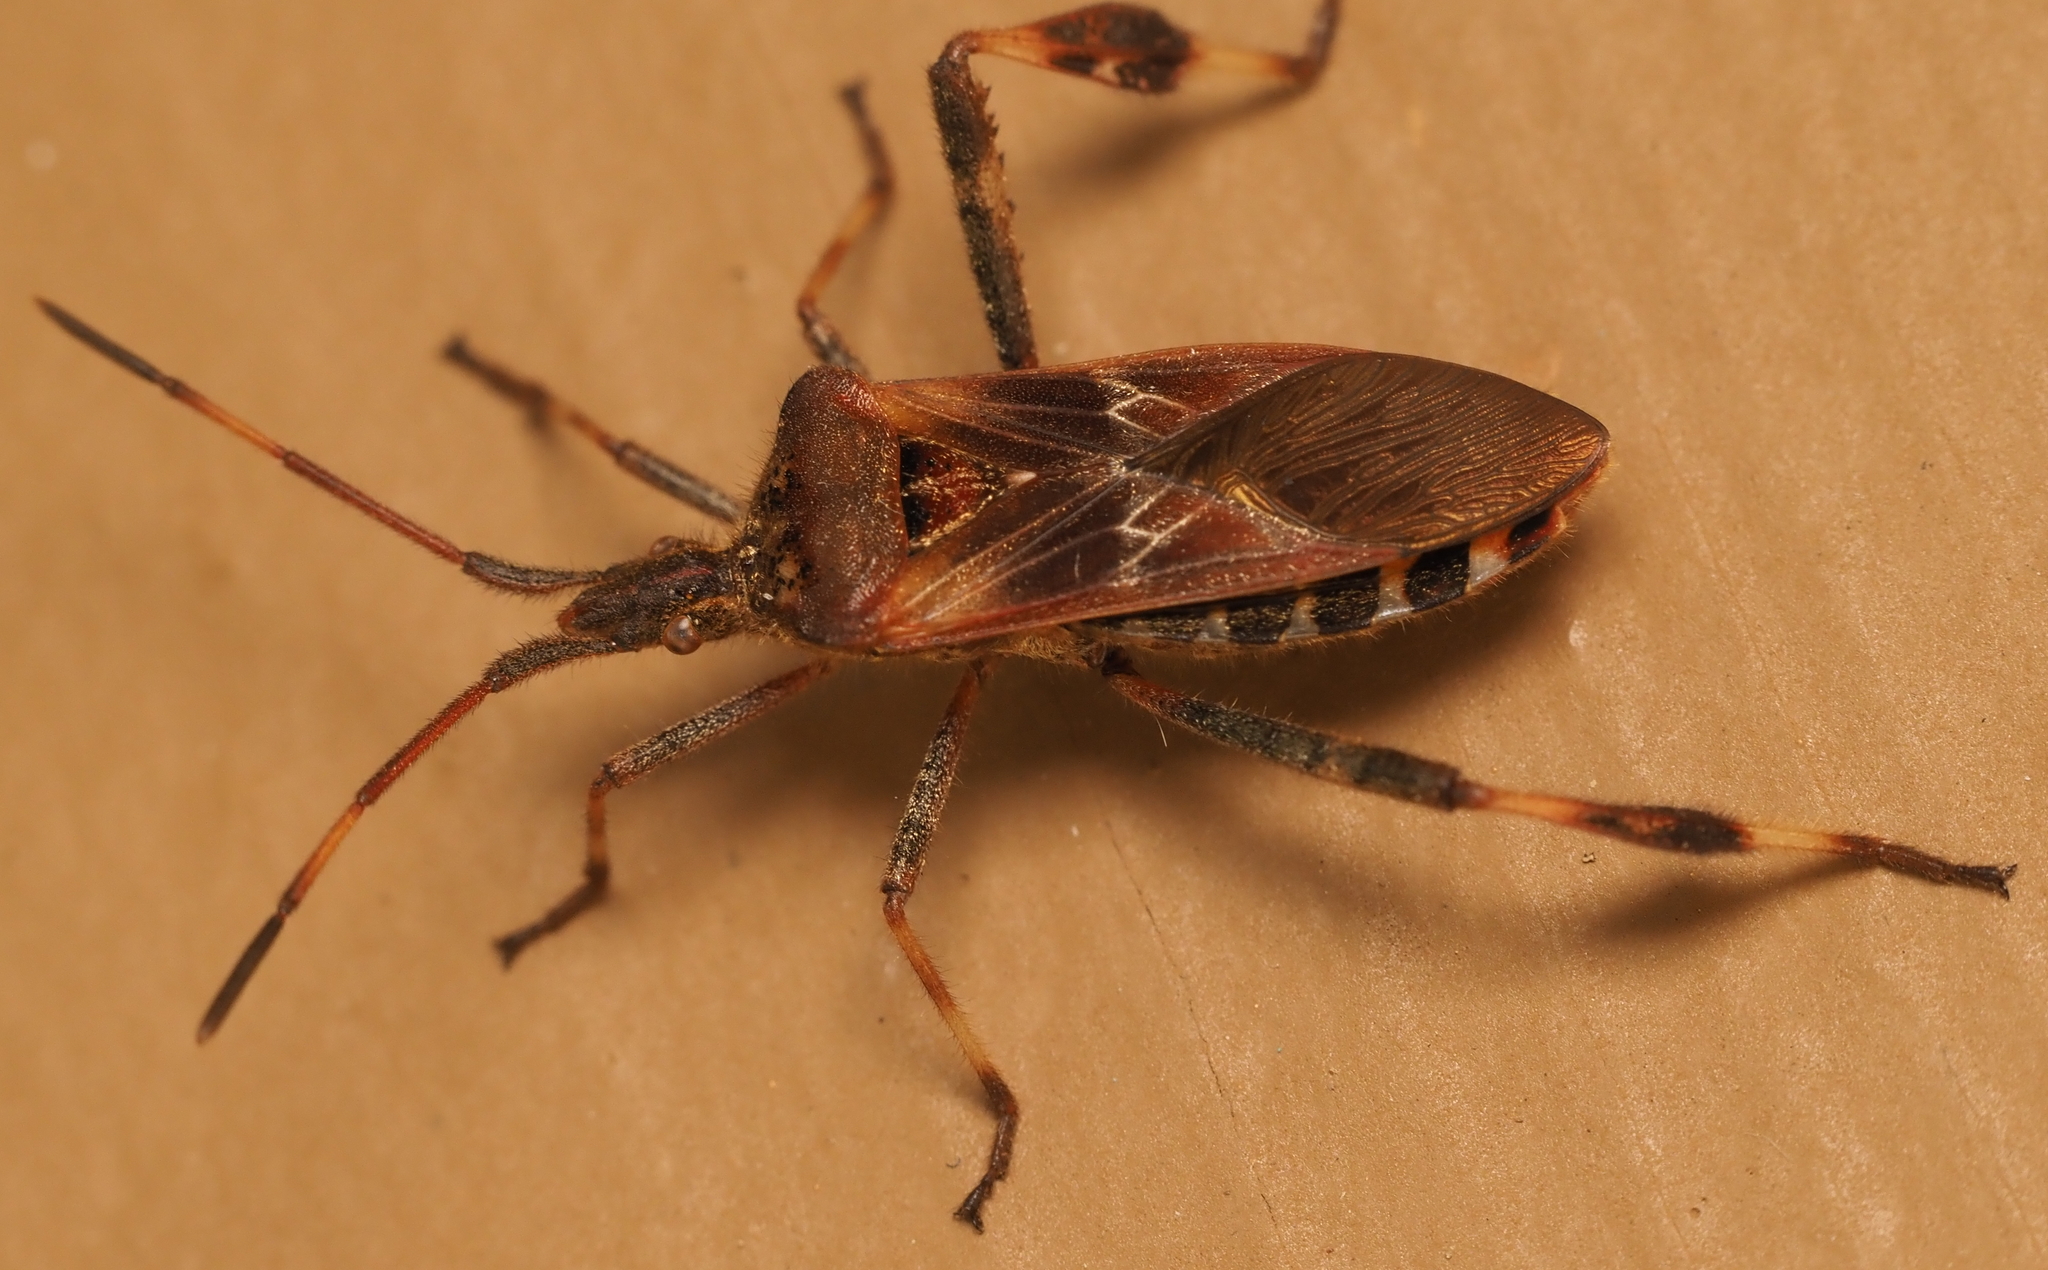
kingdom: Animalia
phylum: Arthropoda
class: Insecta
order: Hemiptera
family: Coreidae
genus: Leptoglossus
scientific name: Leptoglossus occidentalis
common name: Western conifer-seed bug
